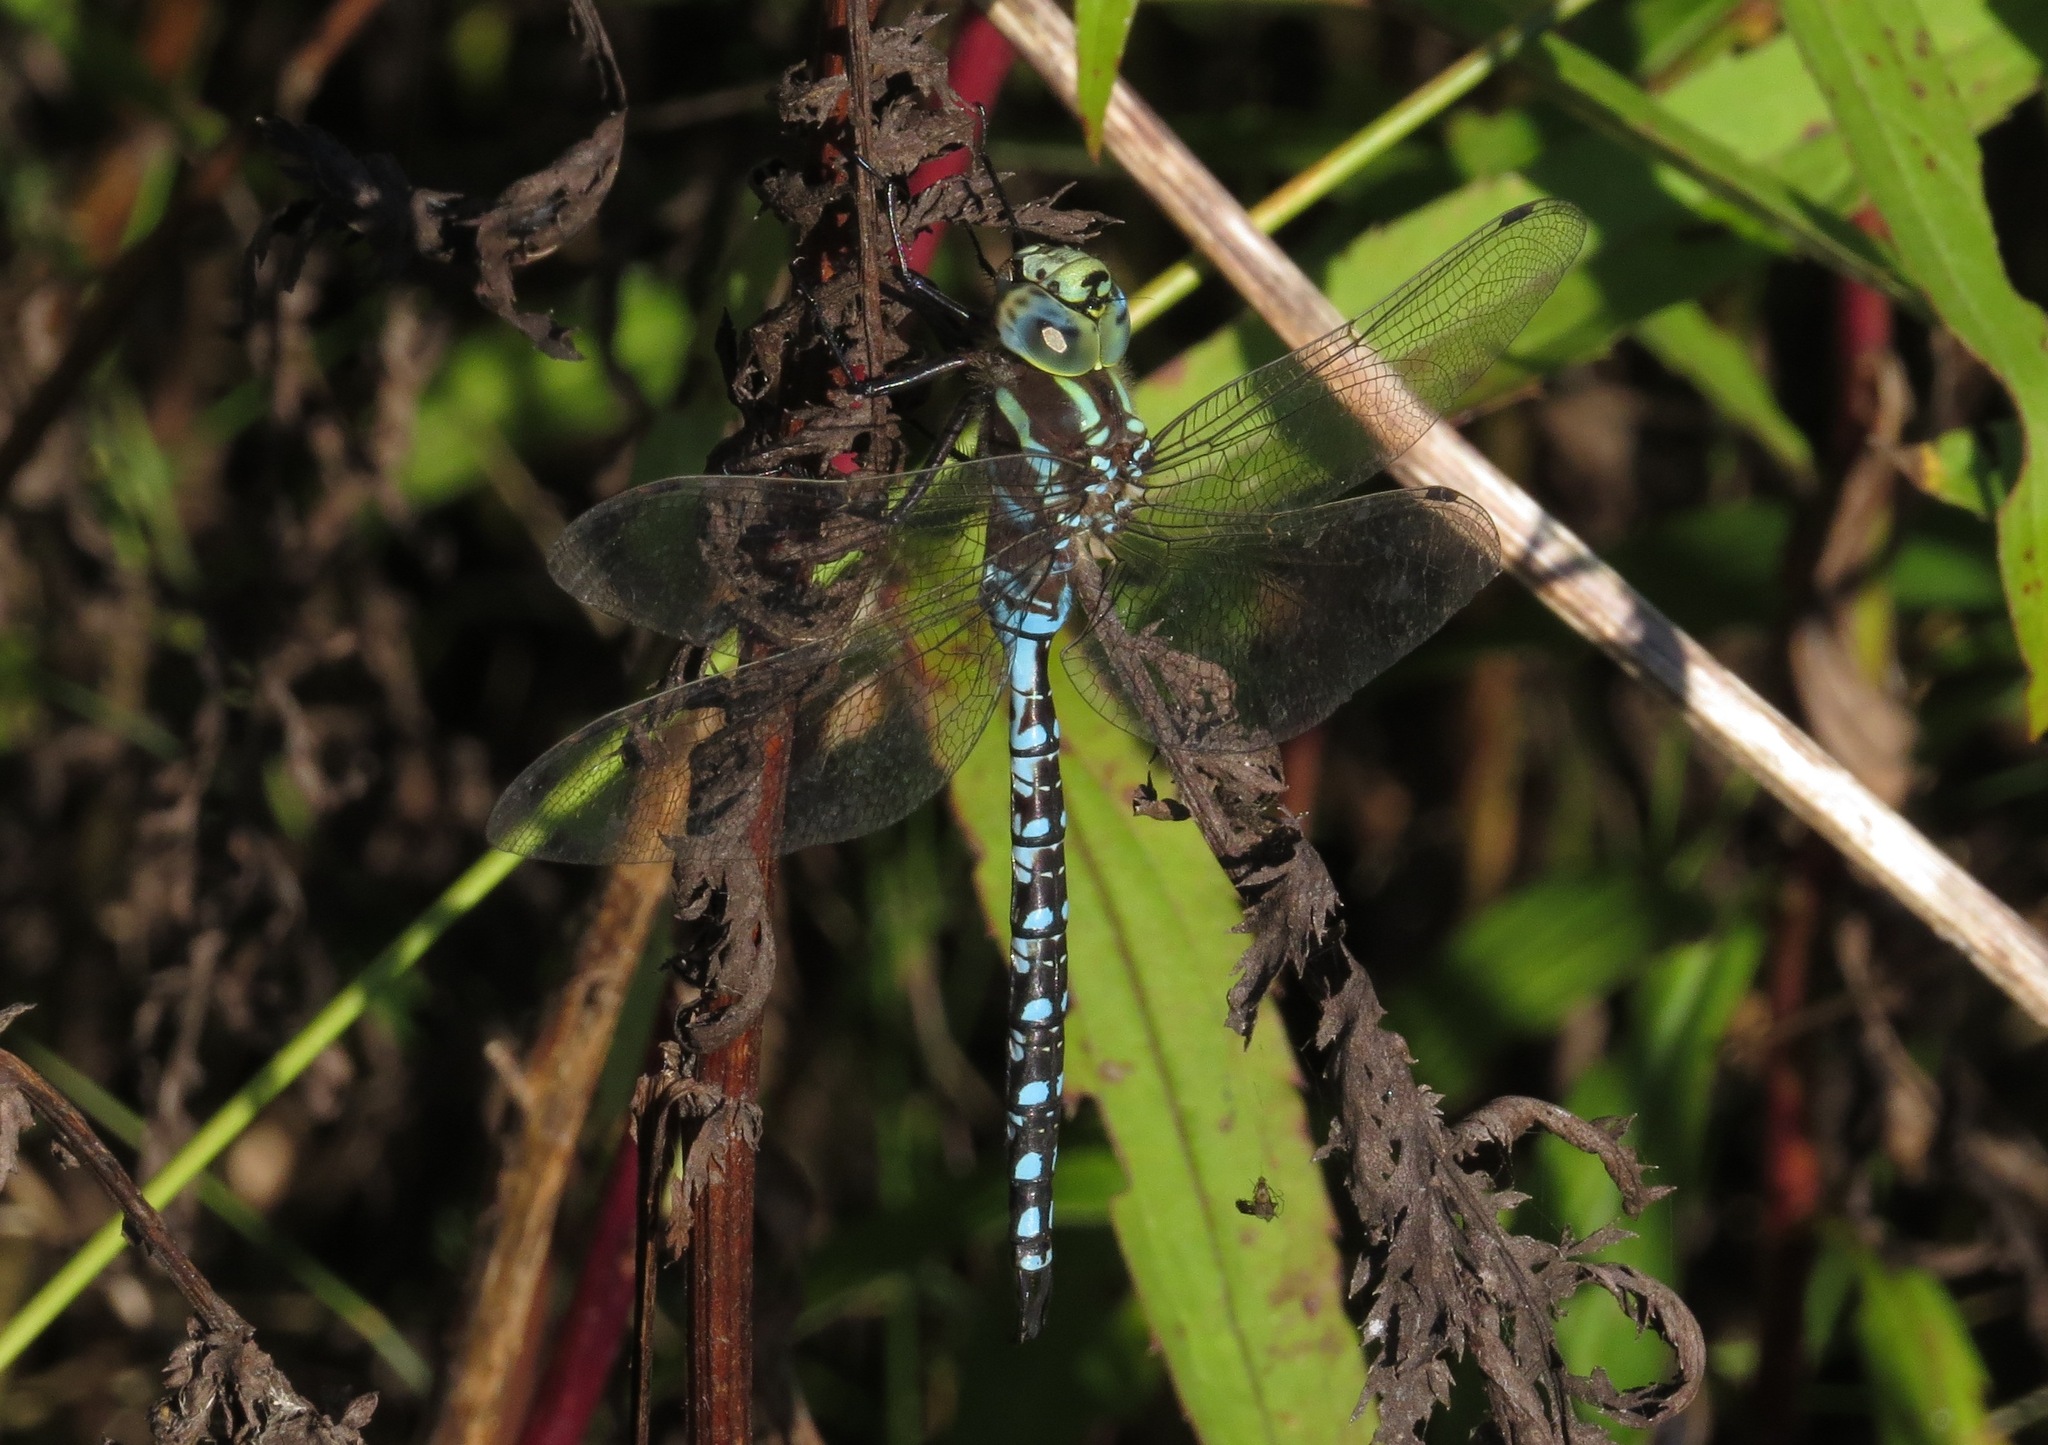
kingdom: Animalia
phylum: Arthropoda
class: Insecta
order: Odonata
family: Aeshnidae
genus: Aeshna
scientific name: Aeshna constricta
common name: Lance-tipped darner
